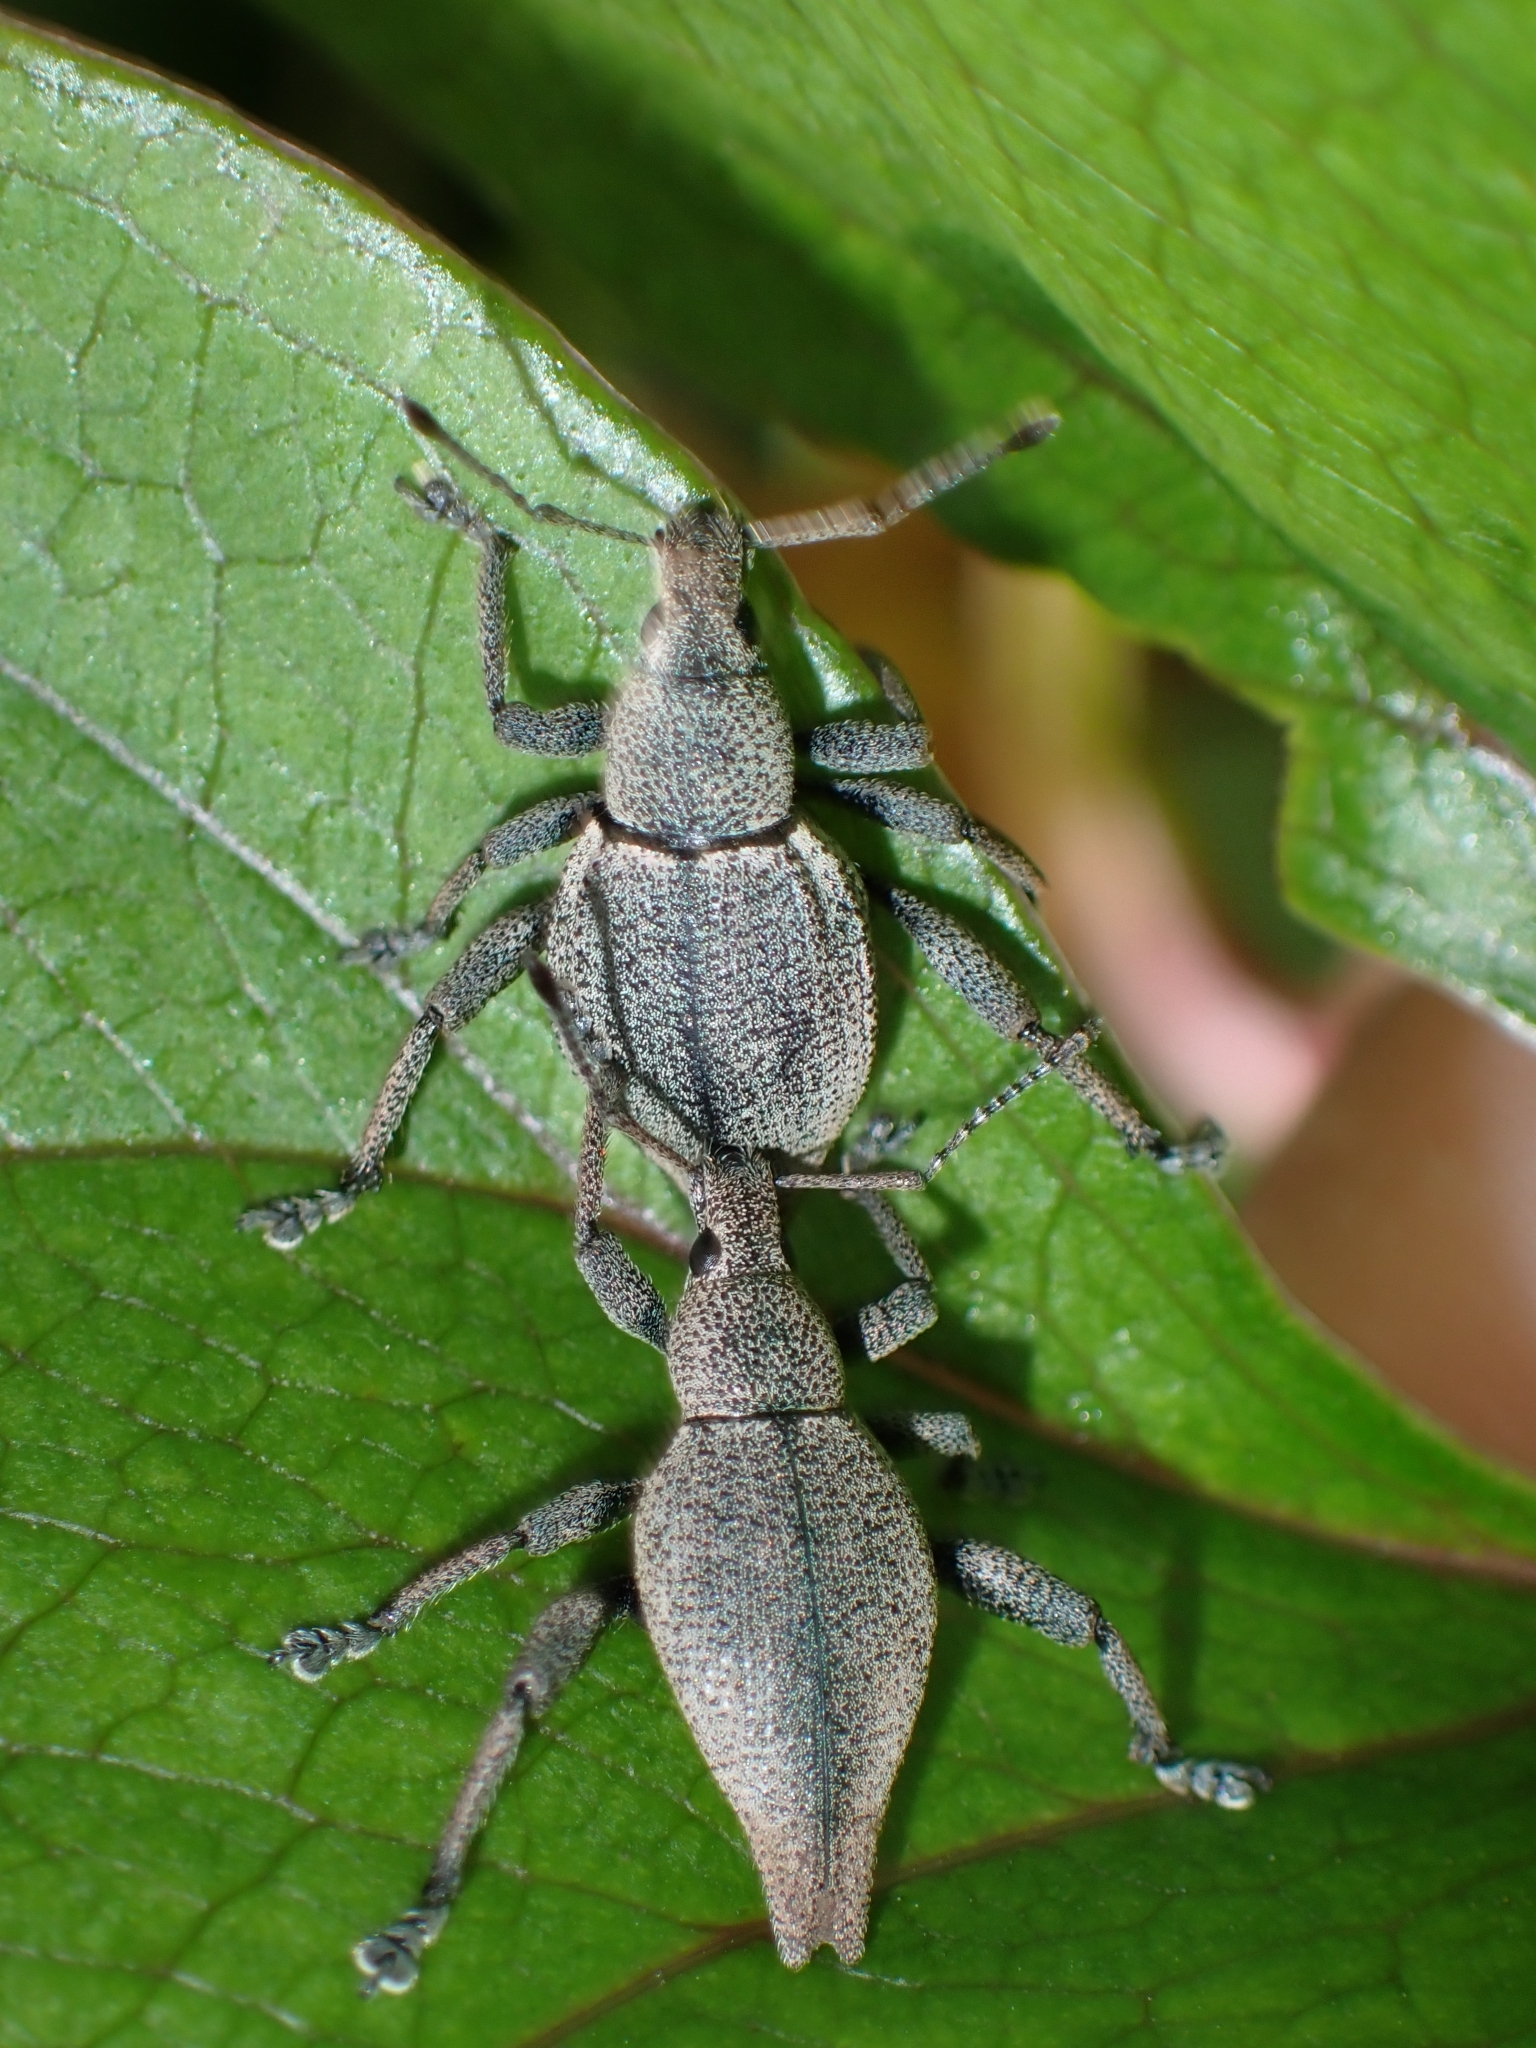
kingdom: Animalia
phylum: Arthropoda
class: Insecta
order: Coleoptera
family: Curculionidae
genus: Elytrurus
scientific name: Elytrurus marginatus
